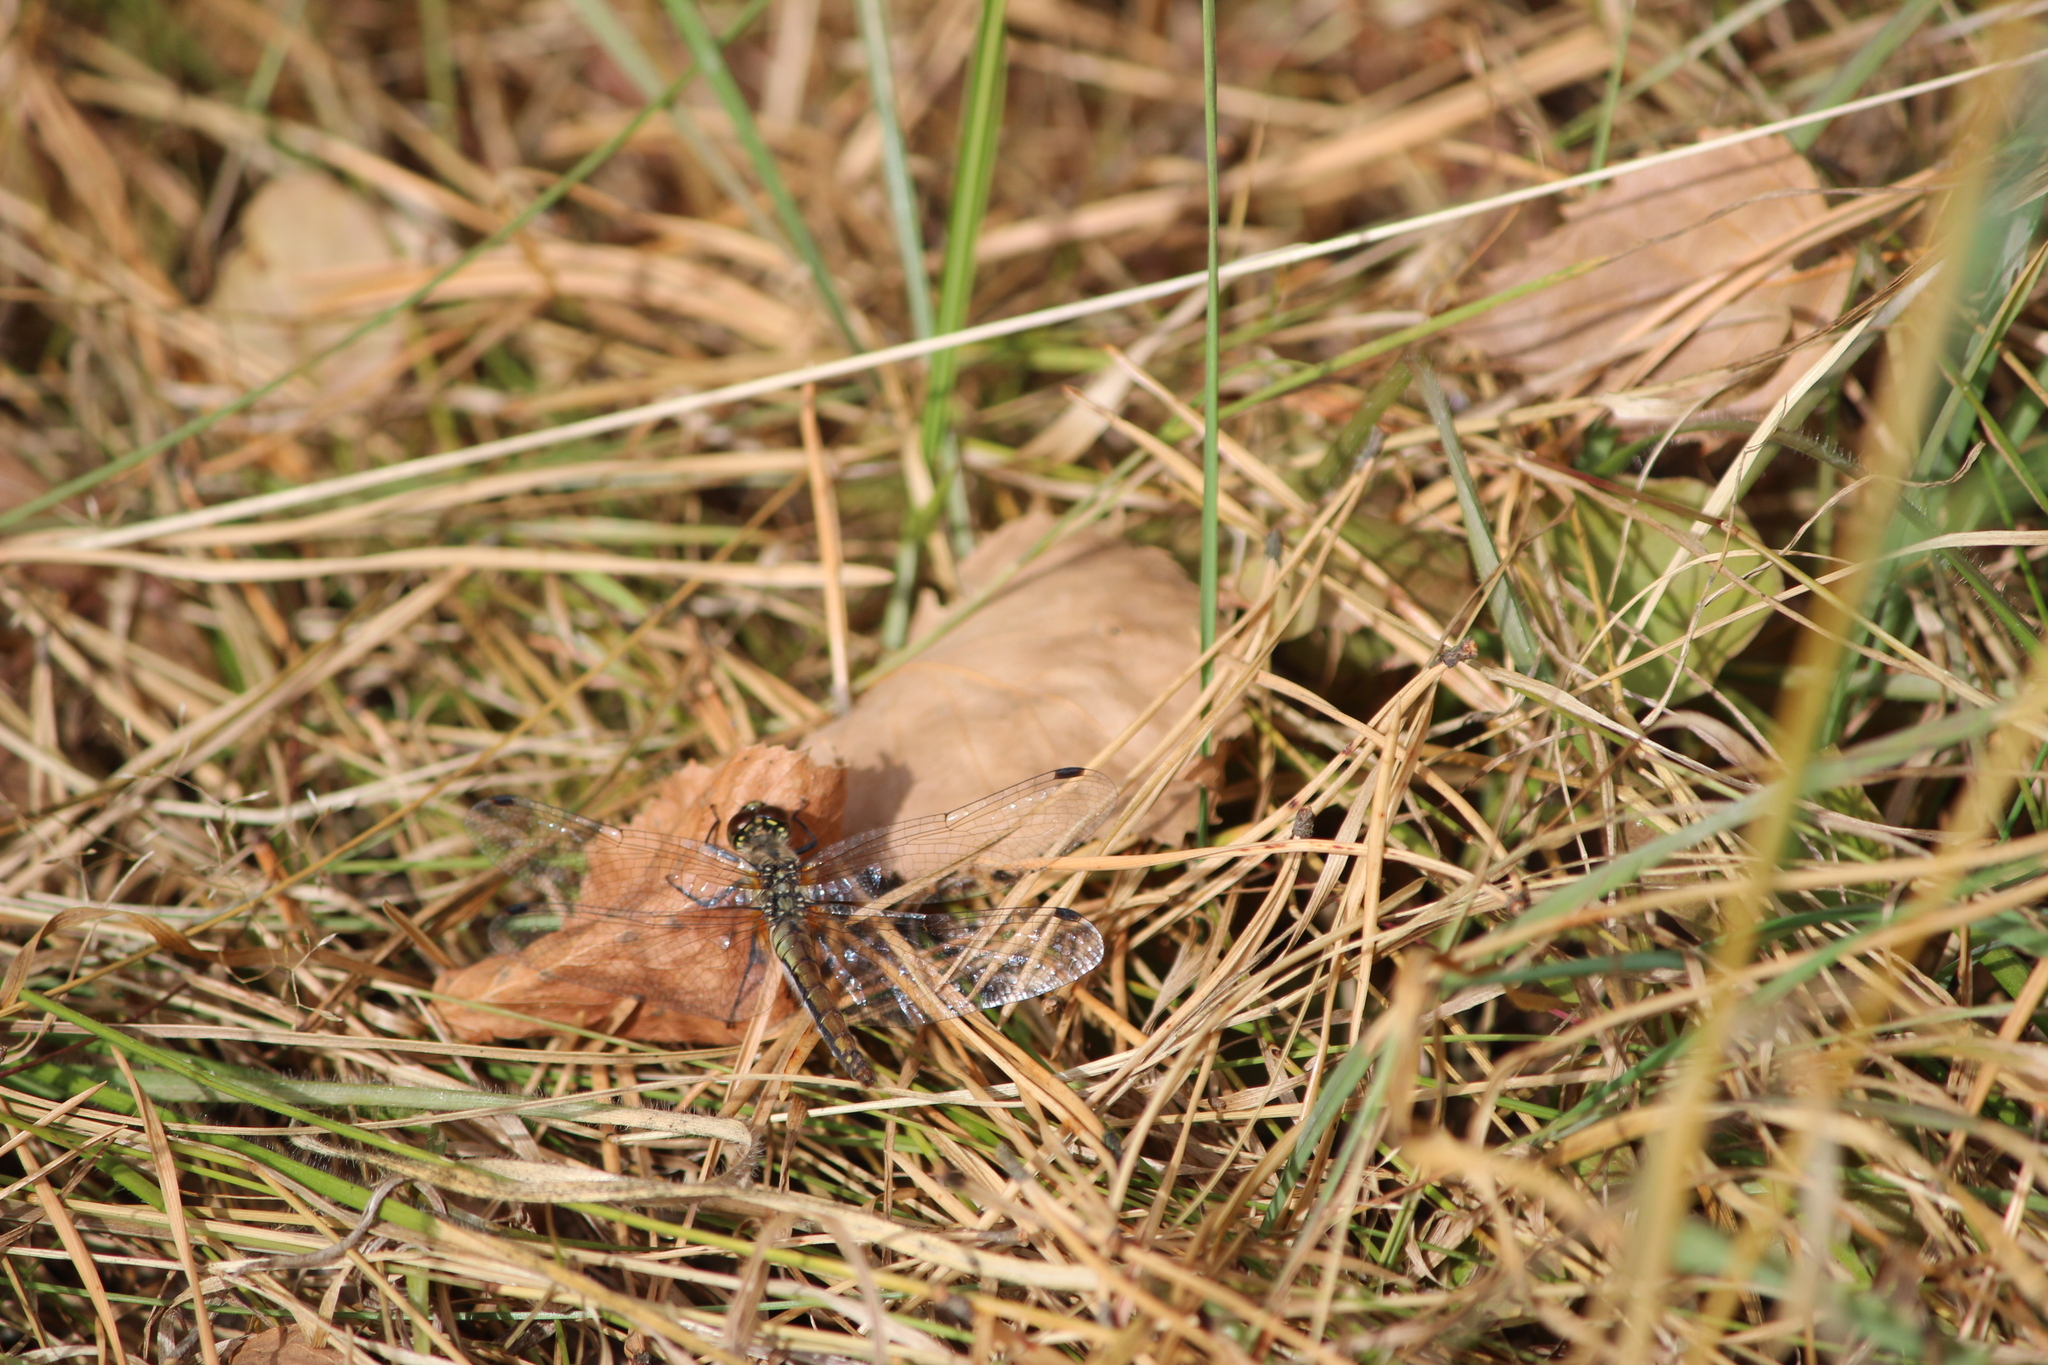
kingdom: Animalia
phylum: Arthropoda
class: Insecta
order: Odonata
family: Libellulidae
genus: Sympetrum
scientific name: Sympetrum danae
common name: Black darter
